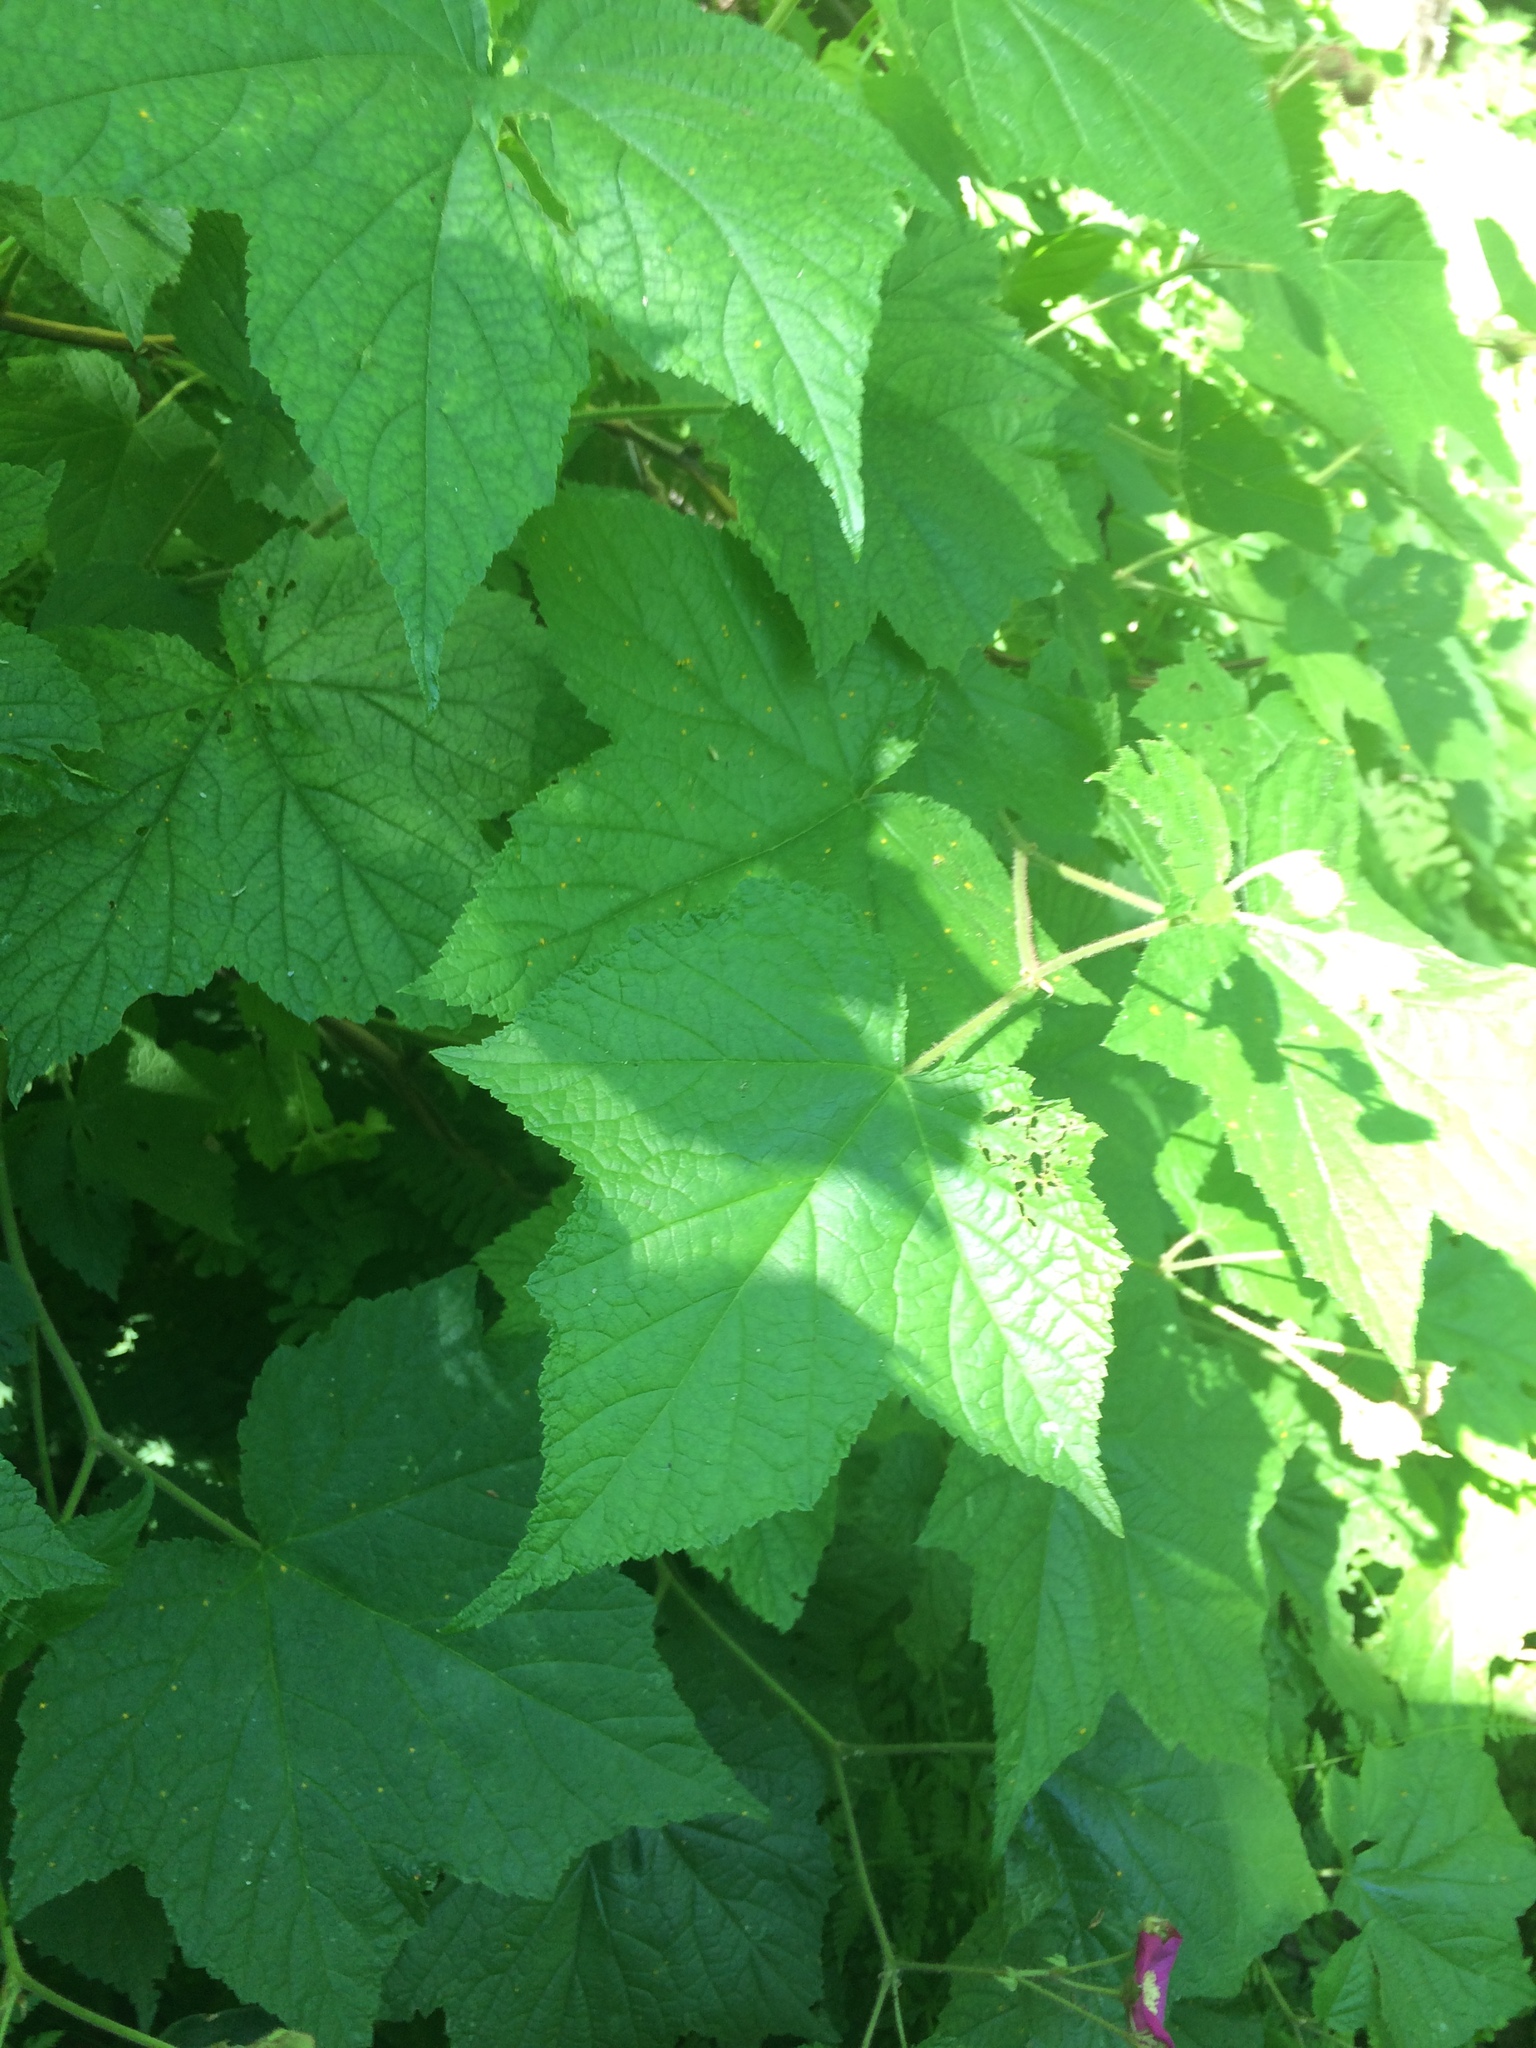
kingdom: Plantae
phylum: Tracheophyta
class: Magnoliopsida
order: Rosales
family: Rosaceae
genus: Rubus
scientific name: Rubus odoratus
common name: Purple-flowered raspberry
